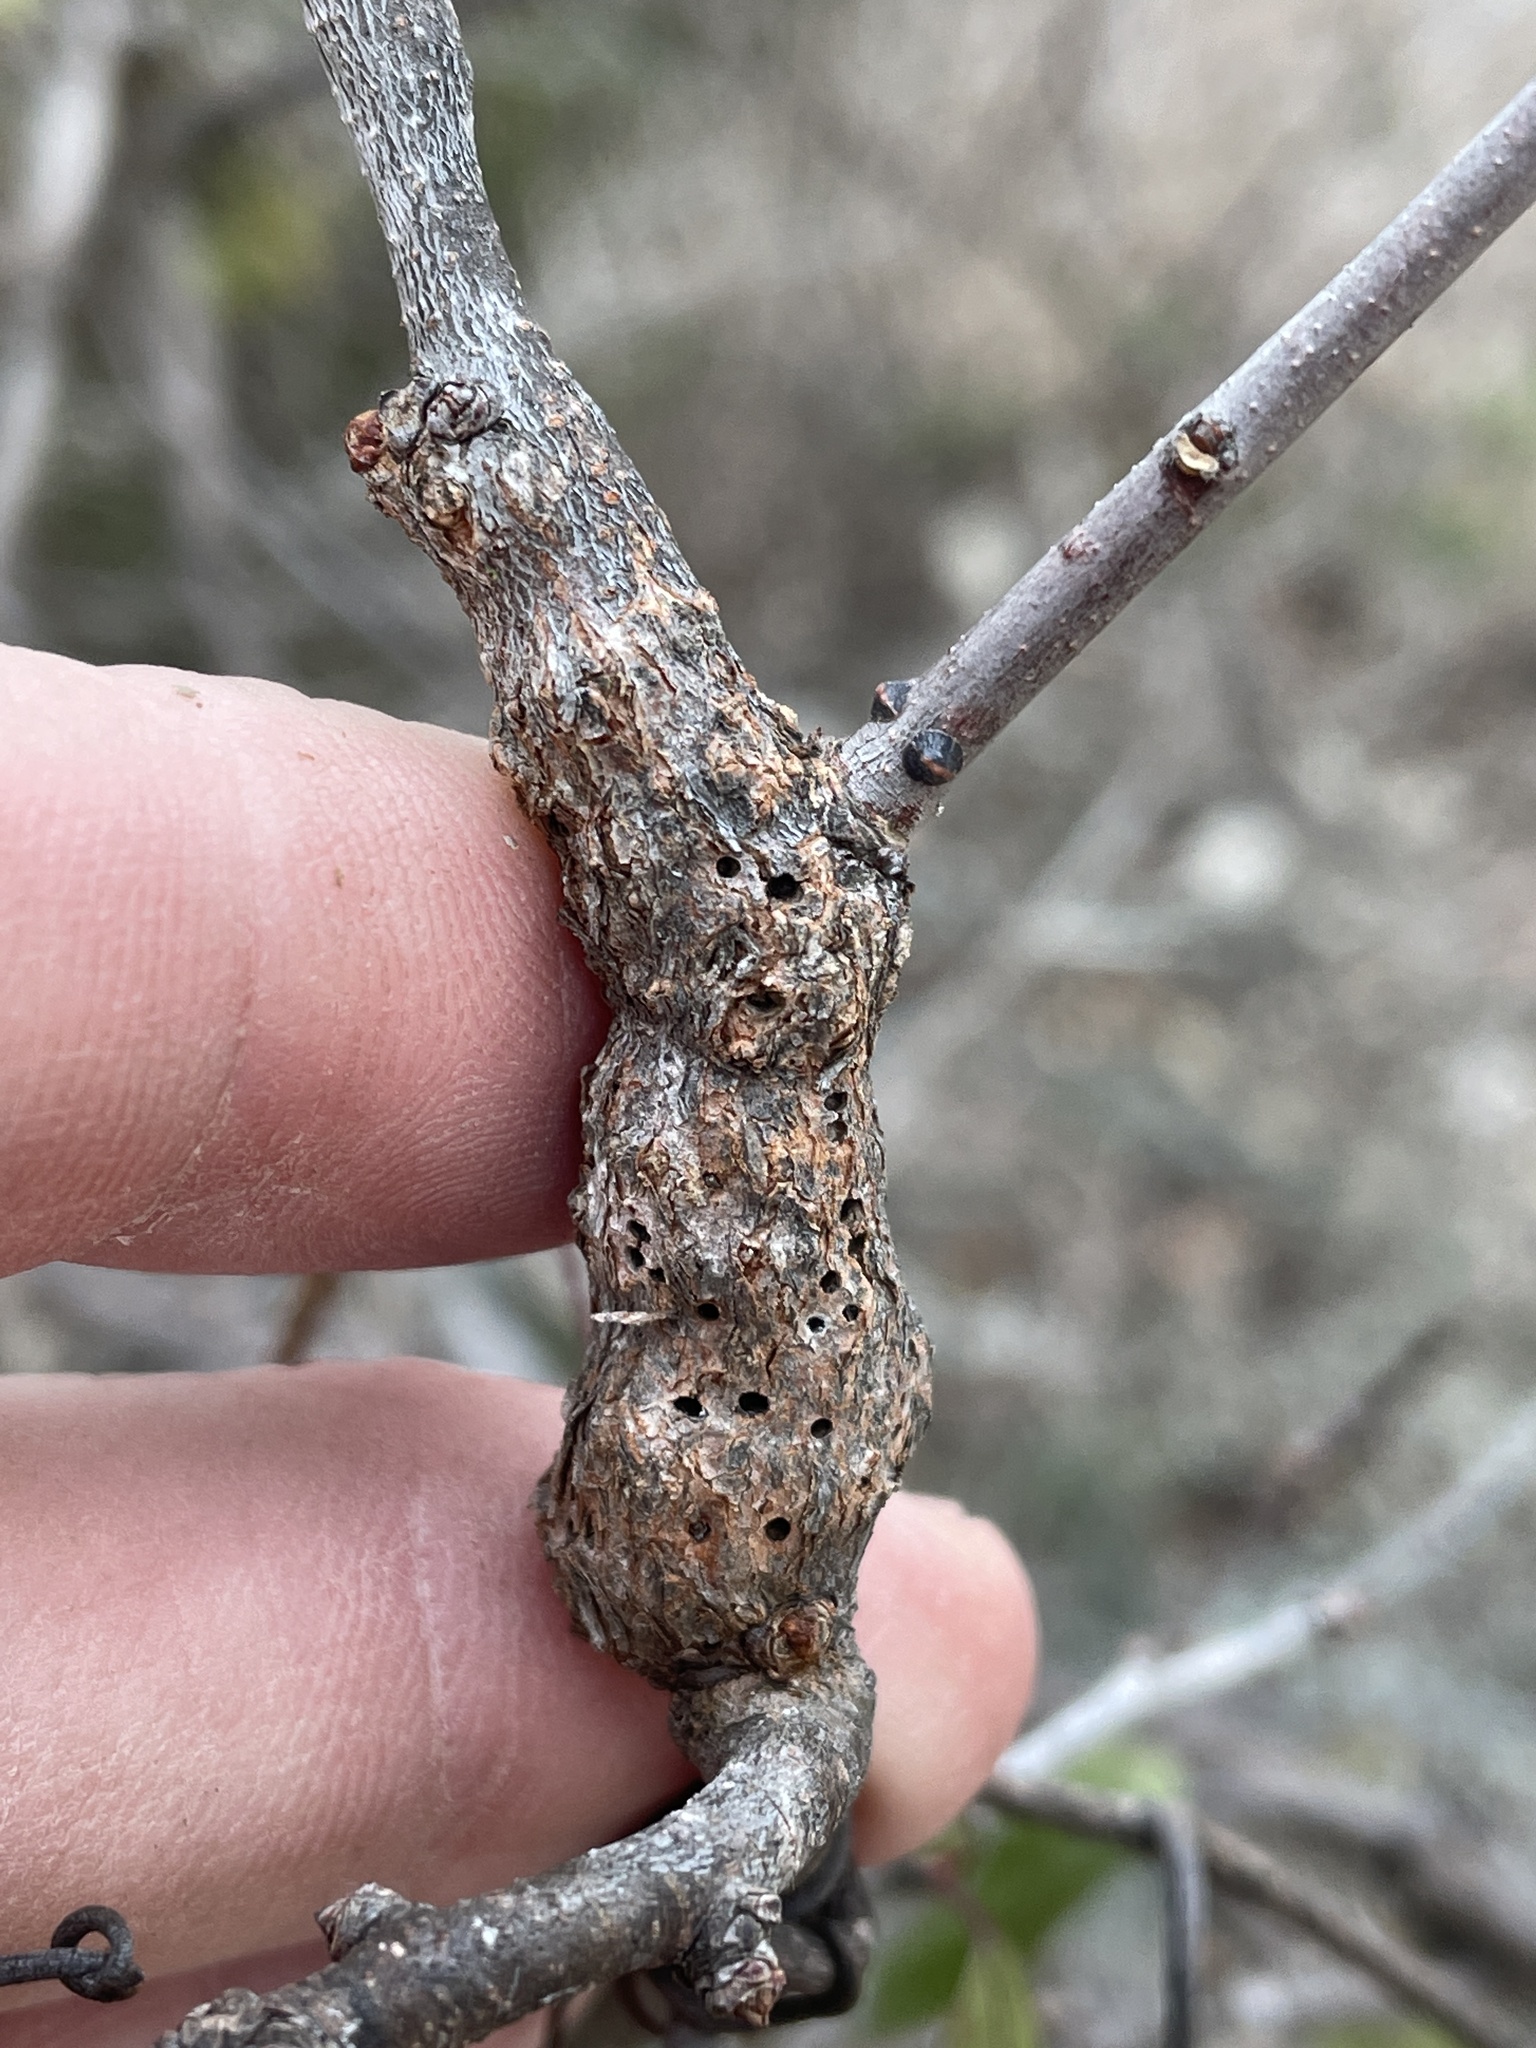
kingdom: Animalia
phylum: Arthropoda
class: Insecta
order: Diptera
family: Cecidomyiidae
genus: Bruggmanniella
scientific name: Bruggmanniella bumeliae
